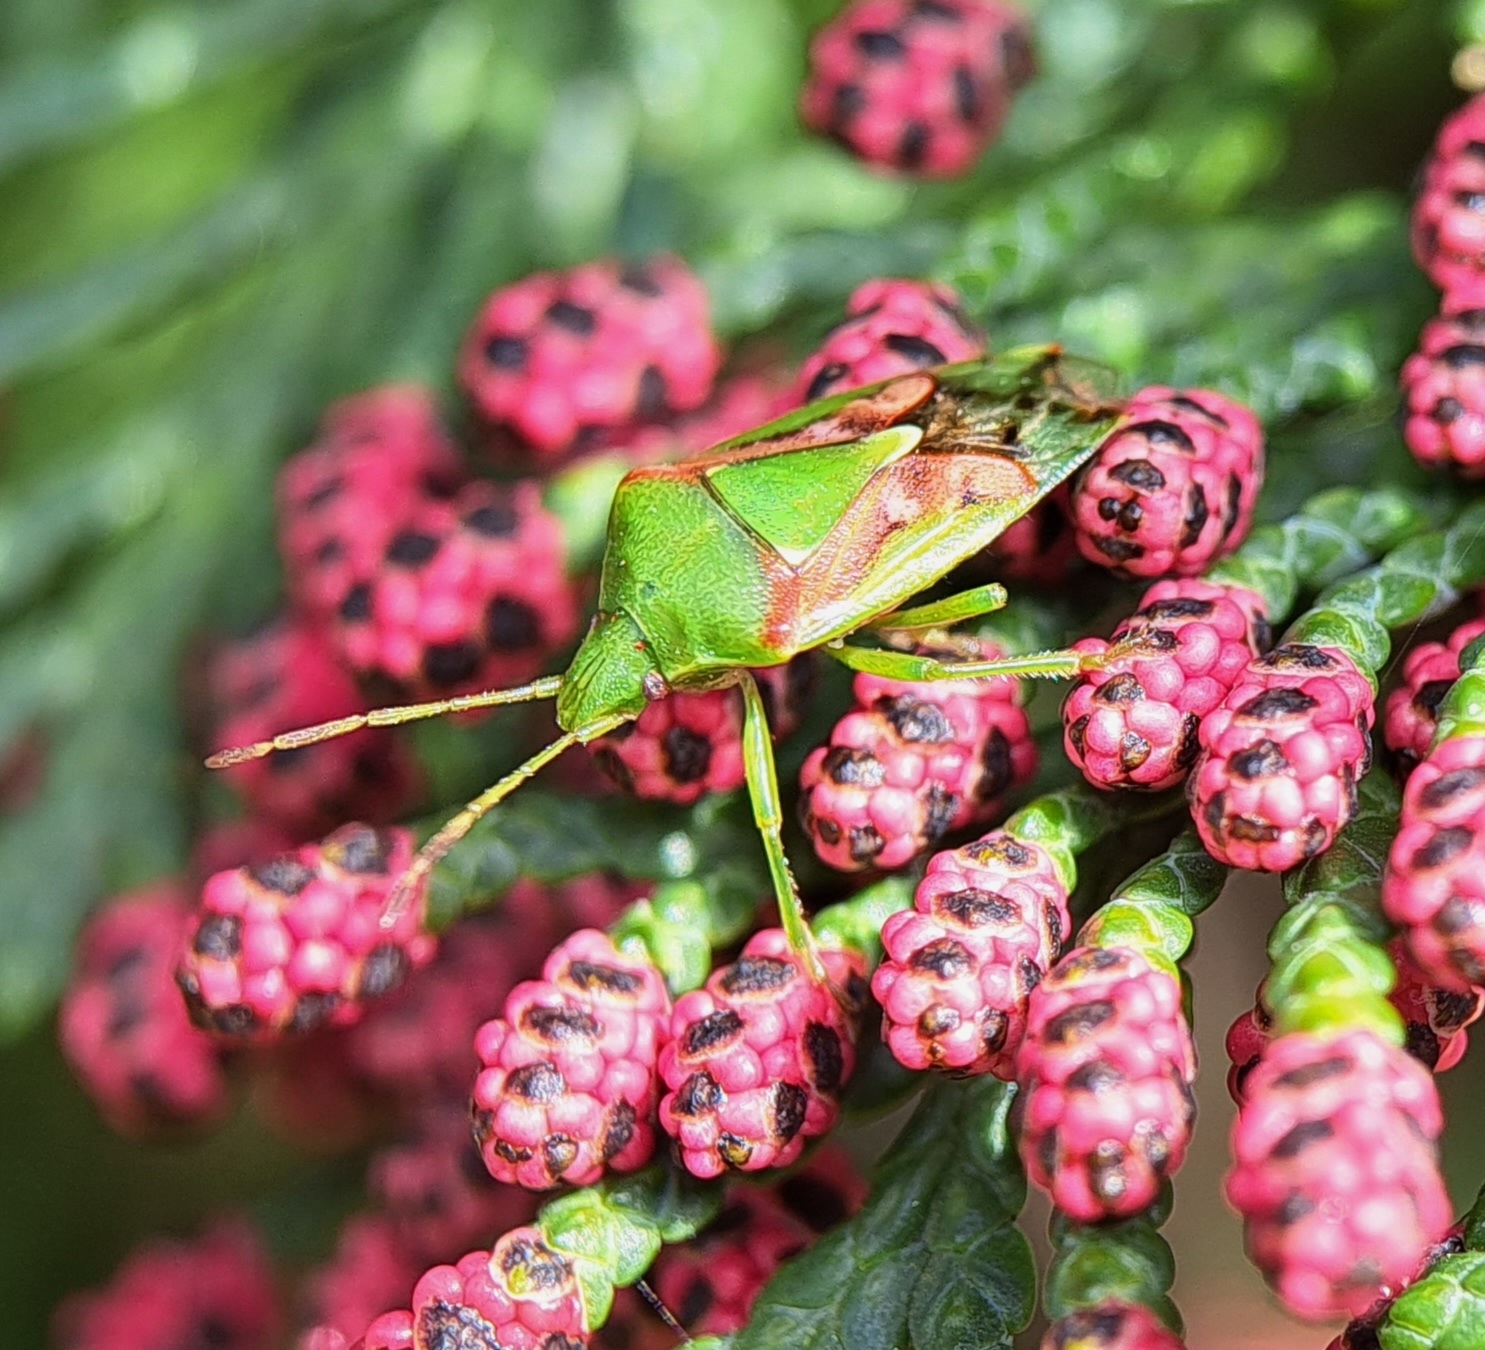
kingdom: Animalia
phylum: Arthropoda
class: Insecta
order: Hemiptera
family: Acanthosomatidae
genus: Cyphostethus
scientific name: Cyphostethus tristriatus
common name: Juniper shieldbug
